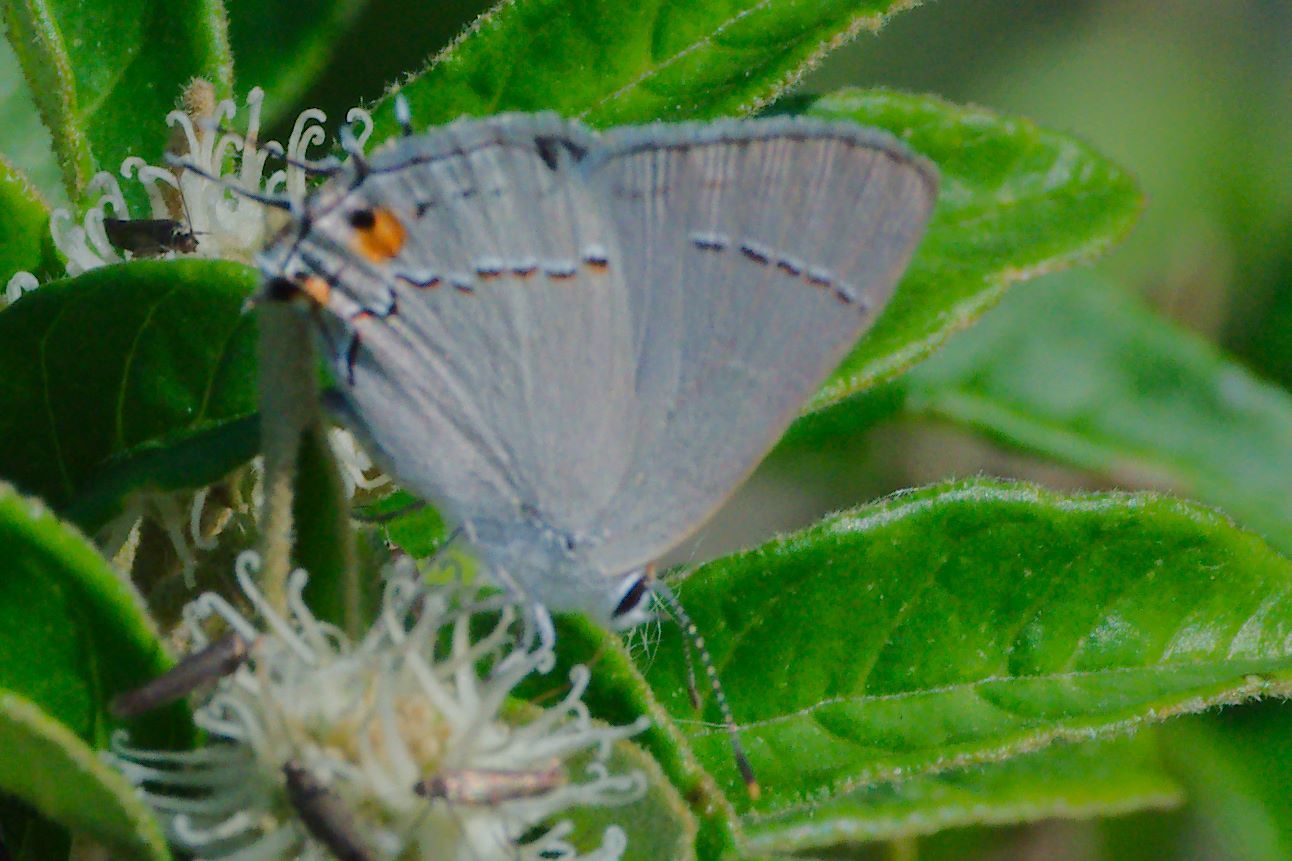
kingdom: Animalia
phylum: Arthropoda
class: Insecta
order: Lepidoptera
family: Lycaenidae
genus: Strymon
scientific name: Strymon melinus
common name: Gray hairstreak
